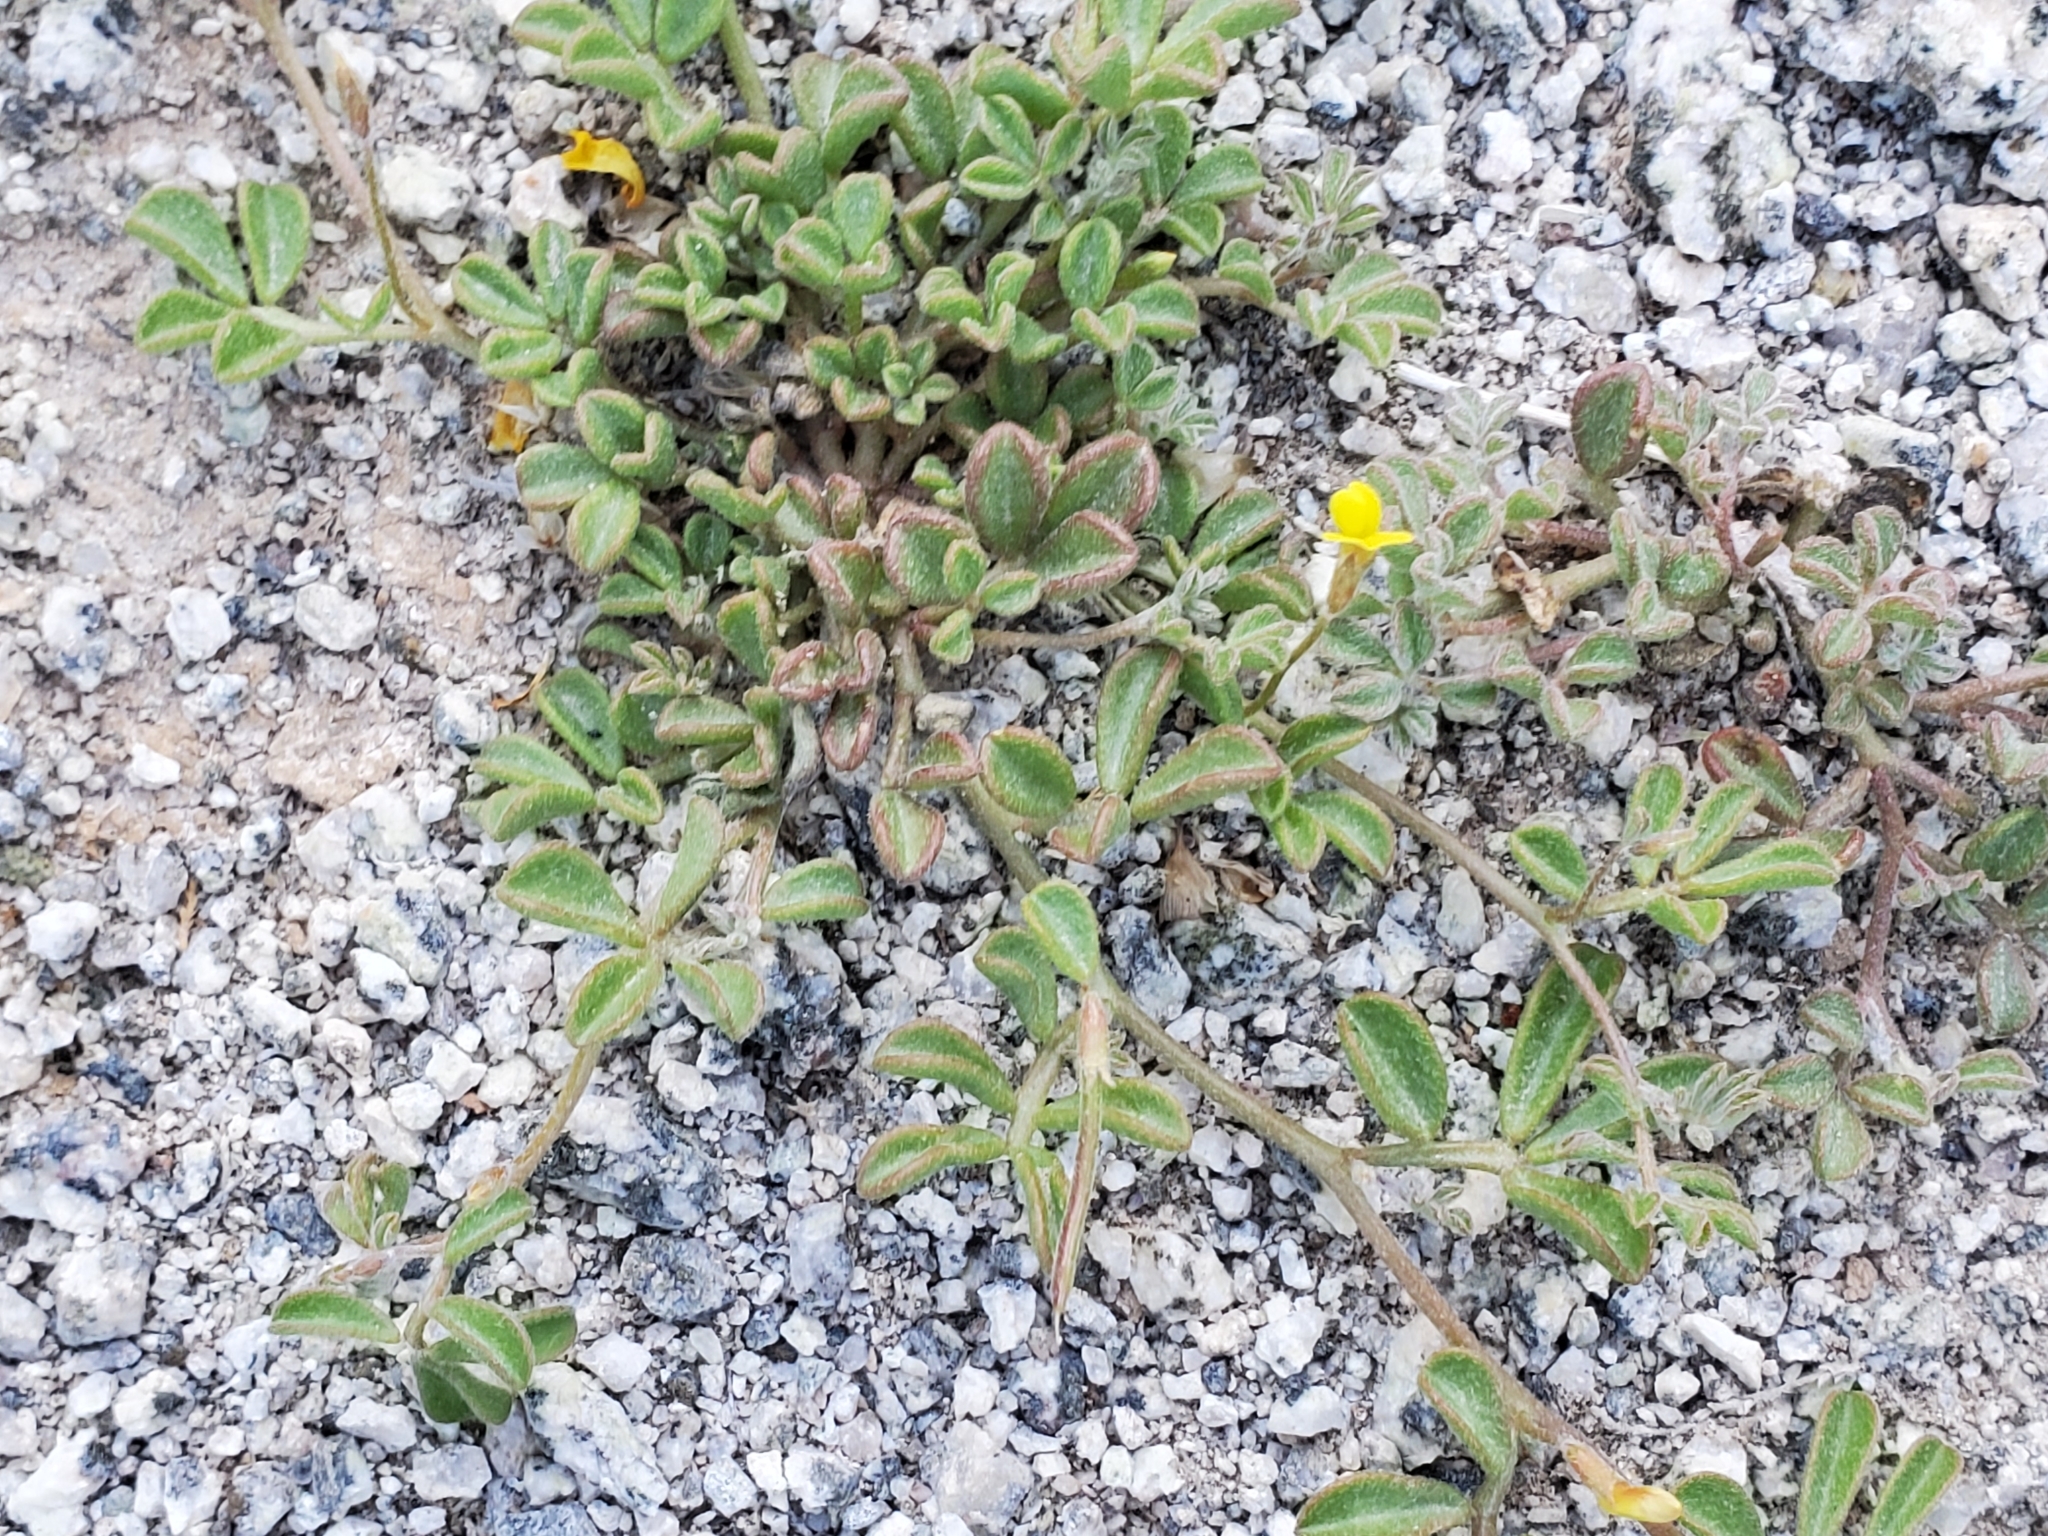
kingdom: Plantae
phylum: Tracheophyta
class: Magnoliopsida
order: Fabales
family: Fabaceae
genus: Acmispon
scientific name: Acmispon strigosus
